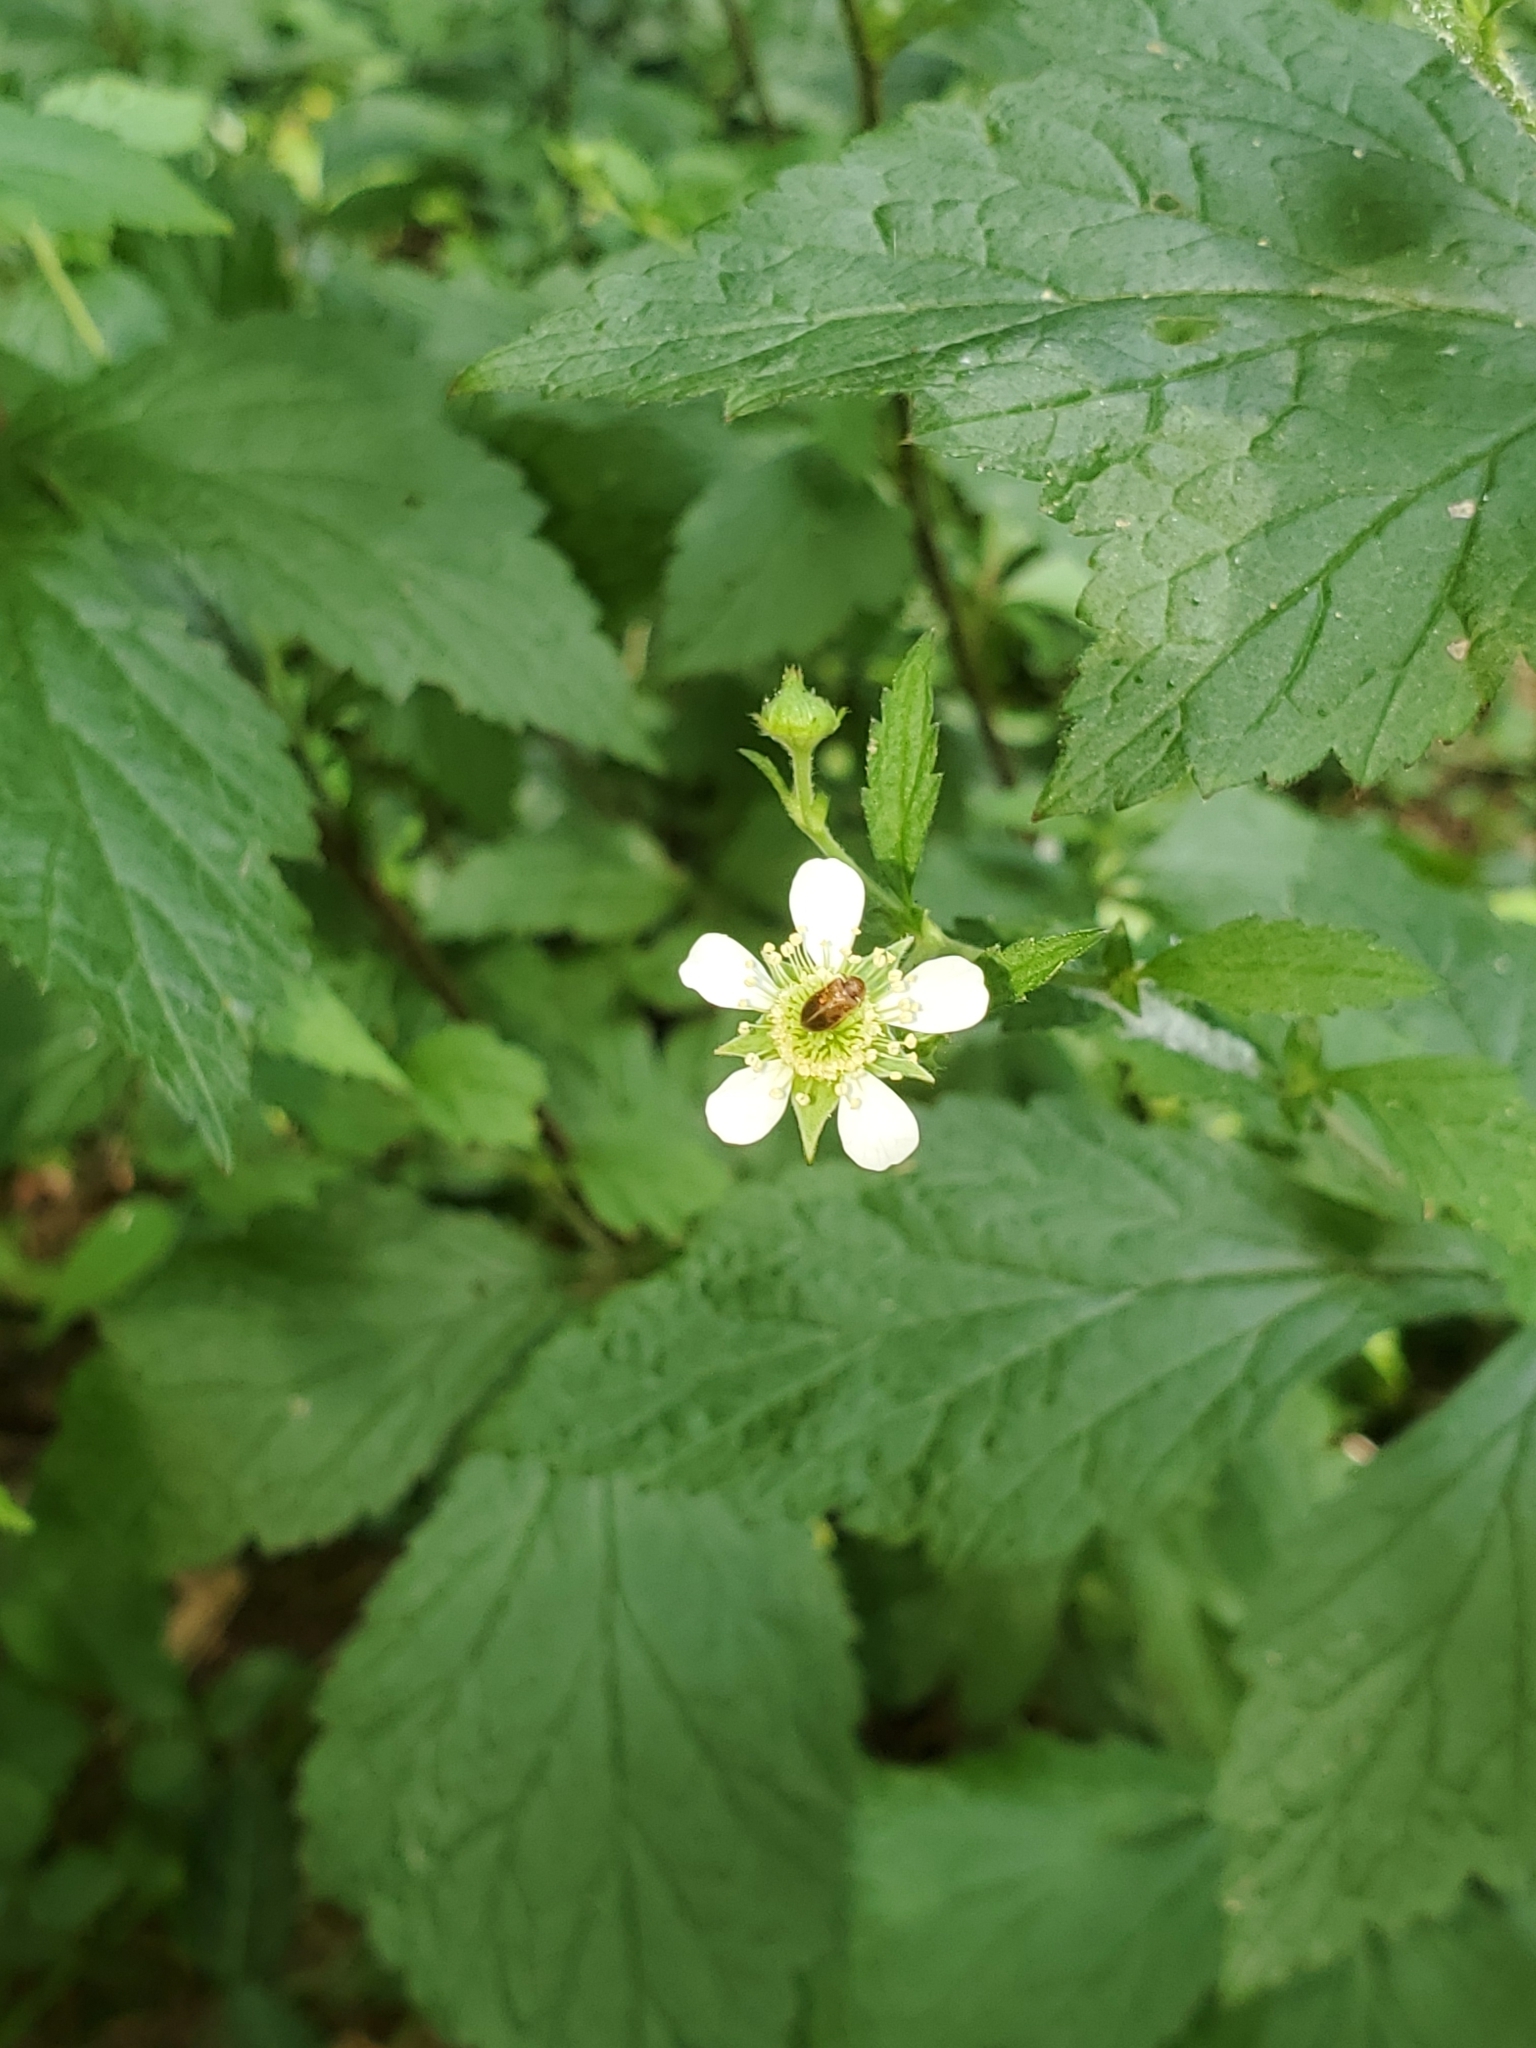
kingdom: Plantae
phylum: Tracheophyta
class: Magnoliopsida
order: Rosales
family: Rosaceae
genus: Geum
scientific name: Geum canadense
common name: White avens
